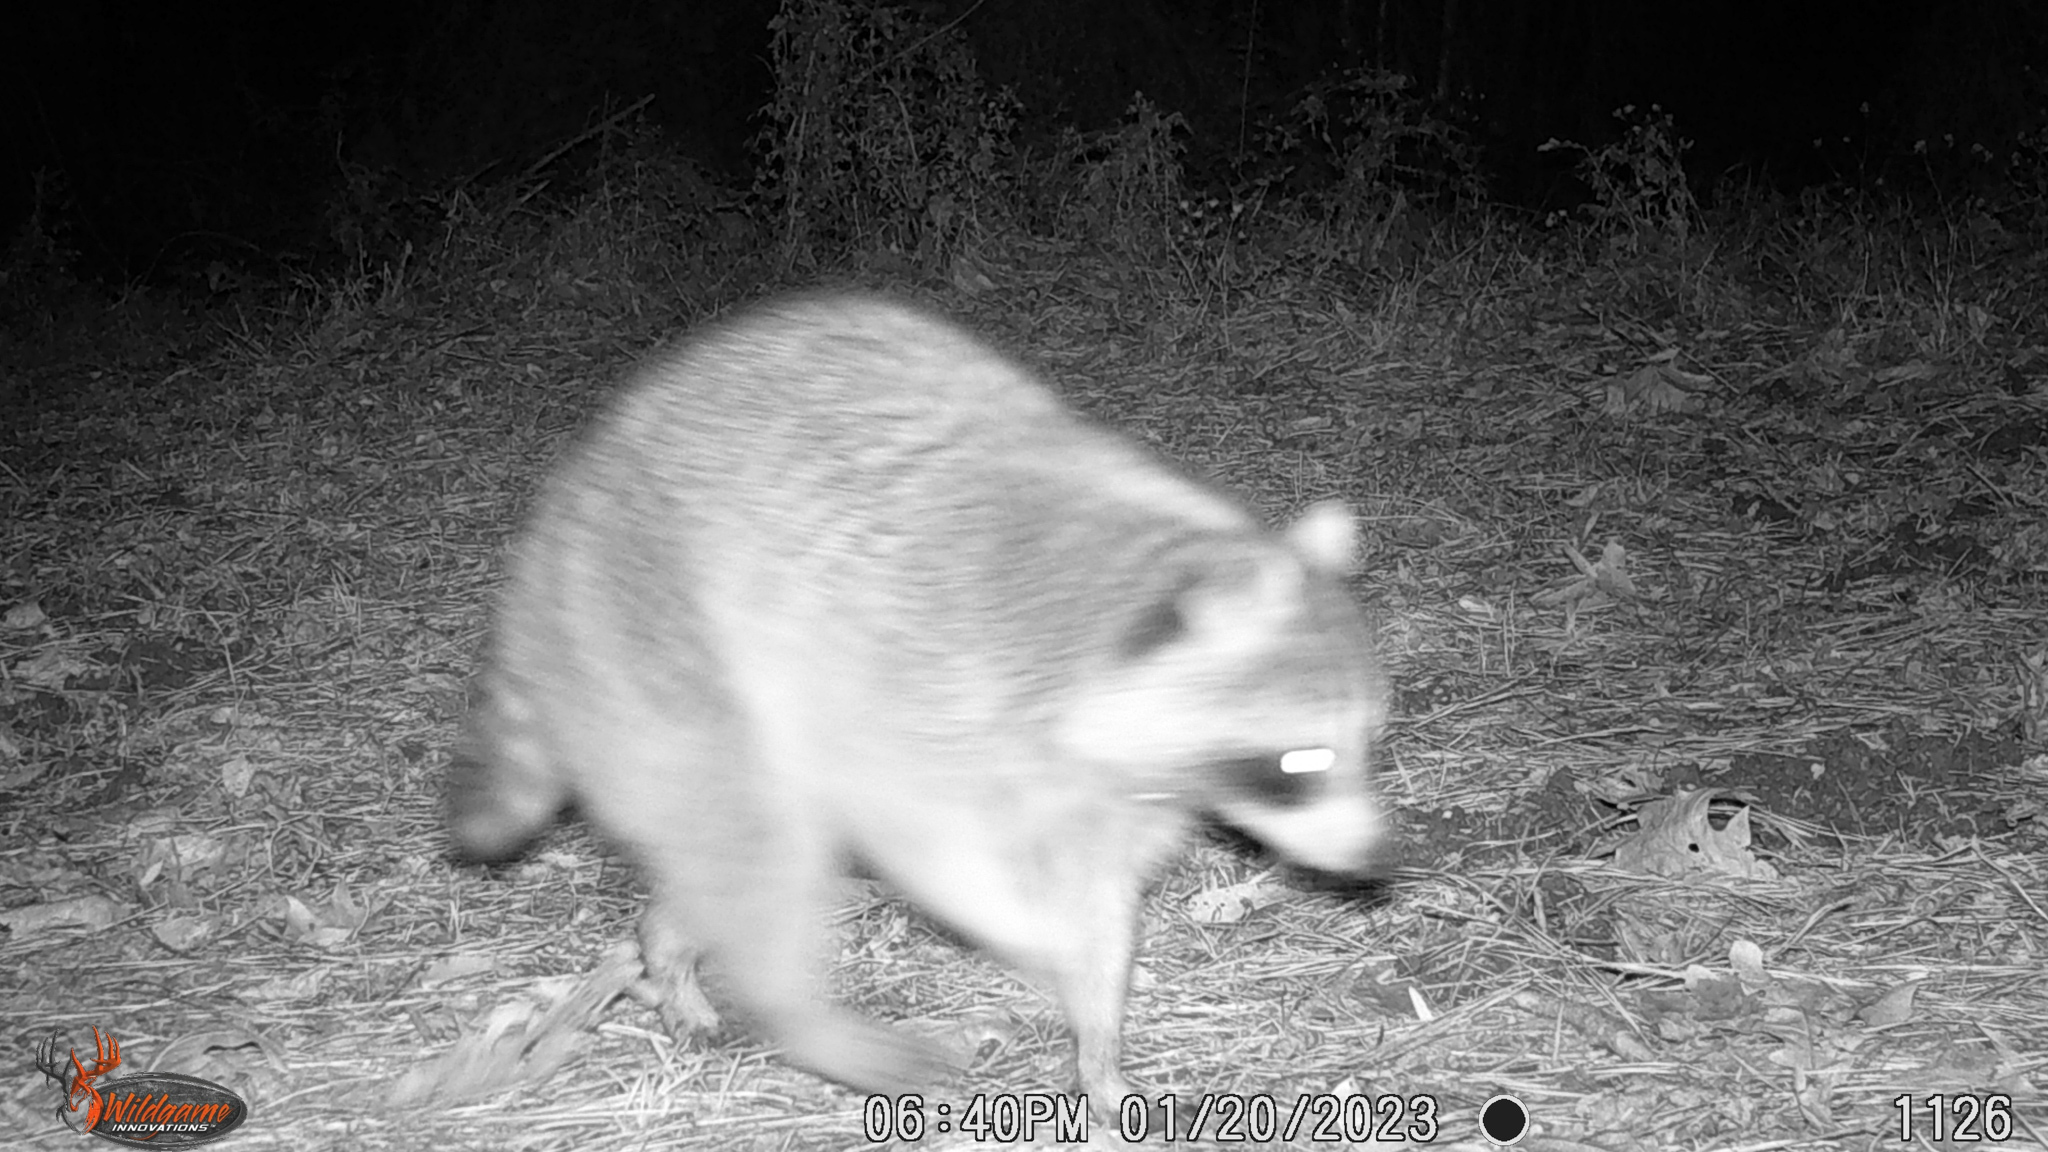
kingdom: Animalia
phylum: Chordata
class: Mammalia
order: Carnivora
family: Procyonidae
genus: Procyon
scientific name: Procyon lotor
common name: Raccoon
